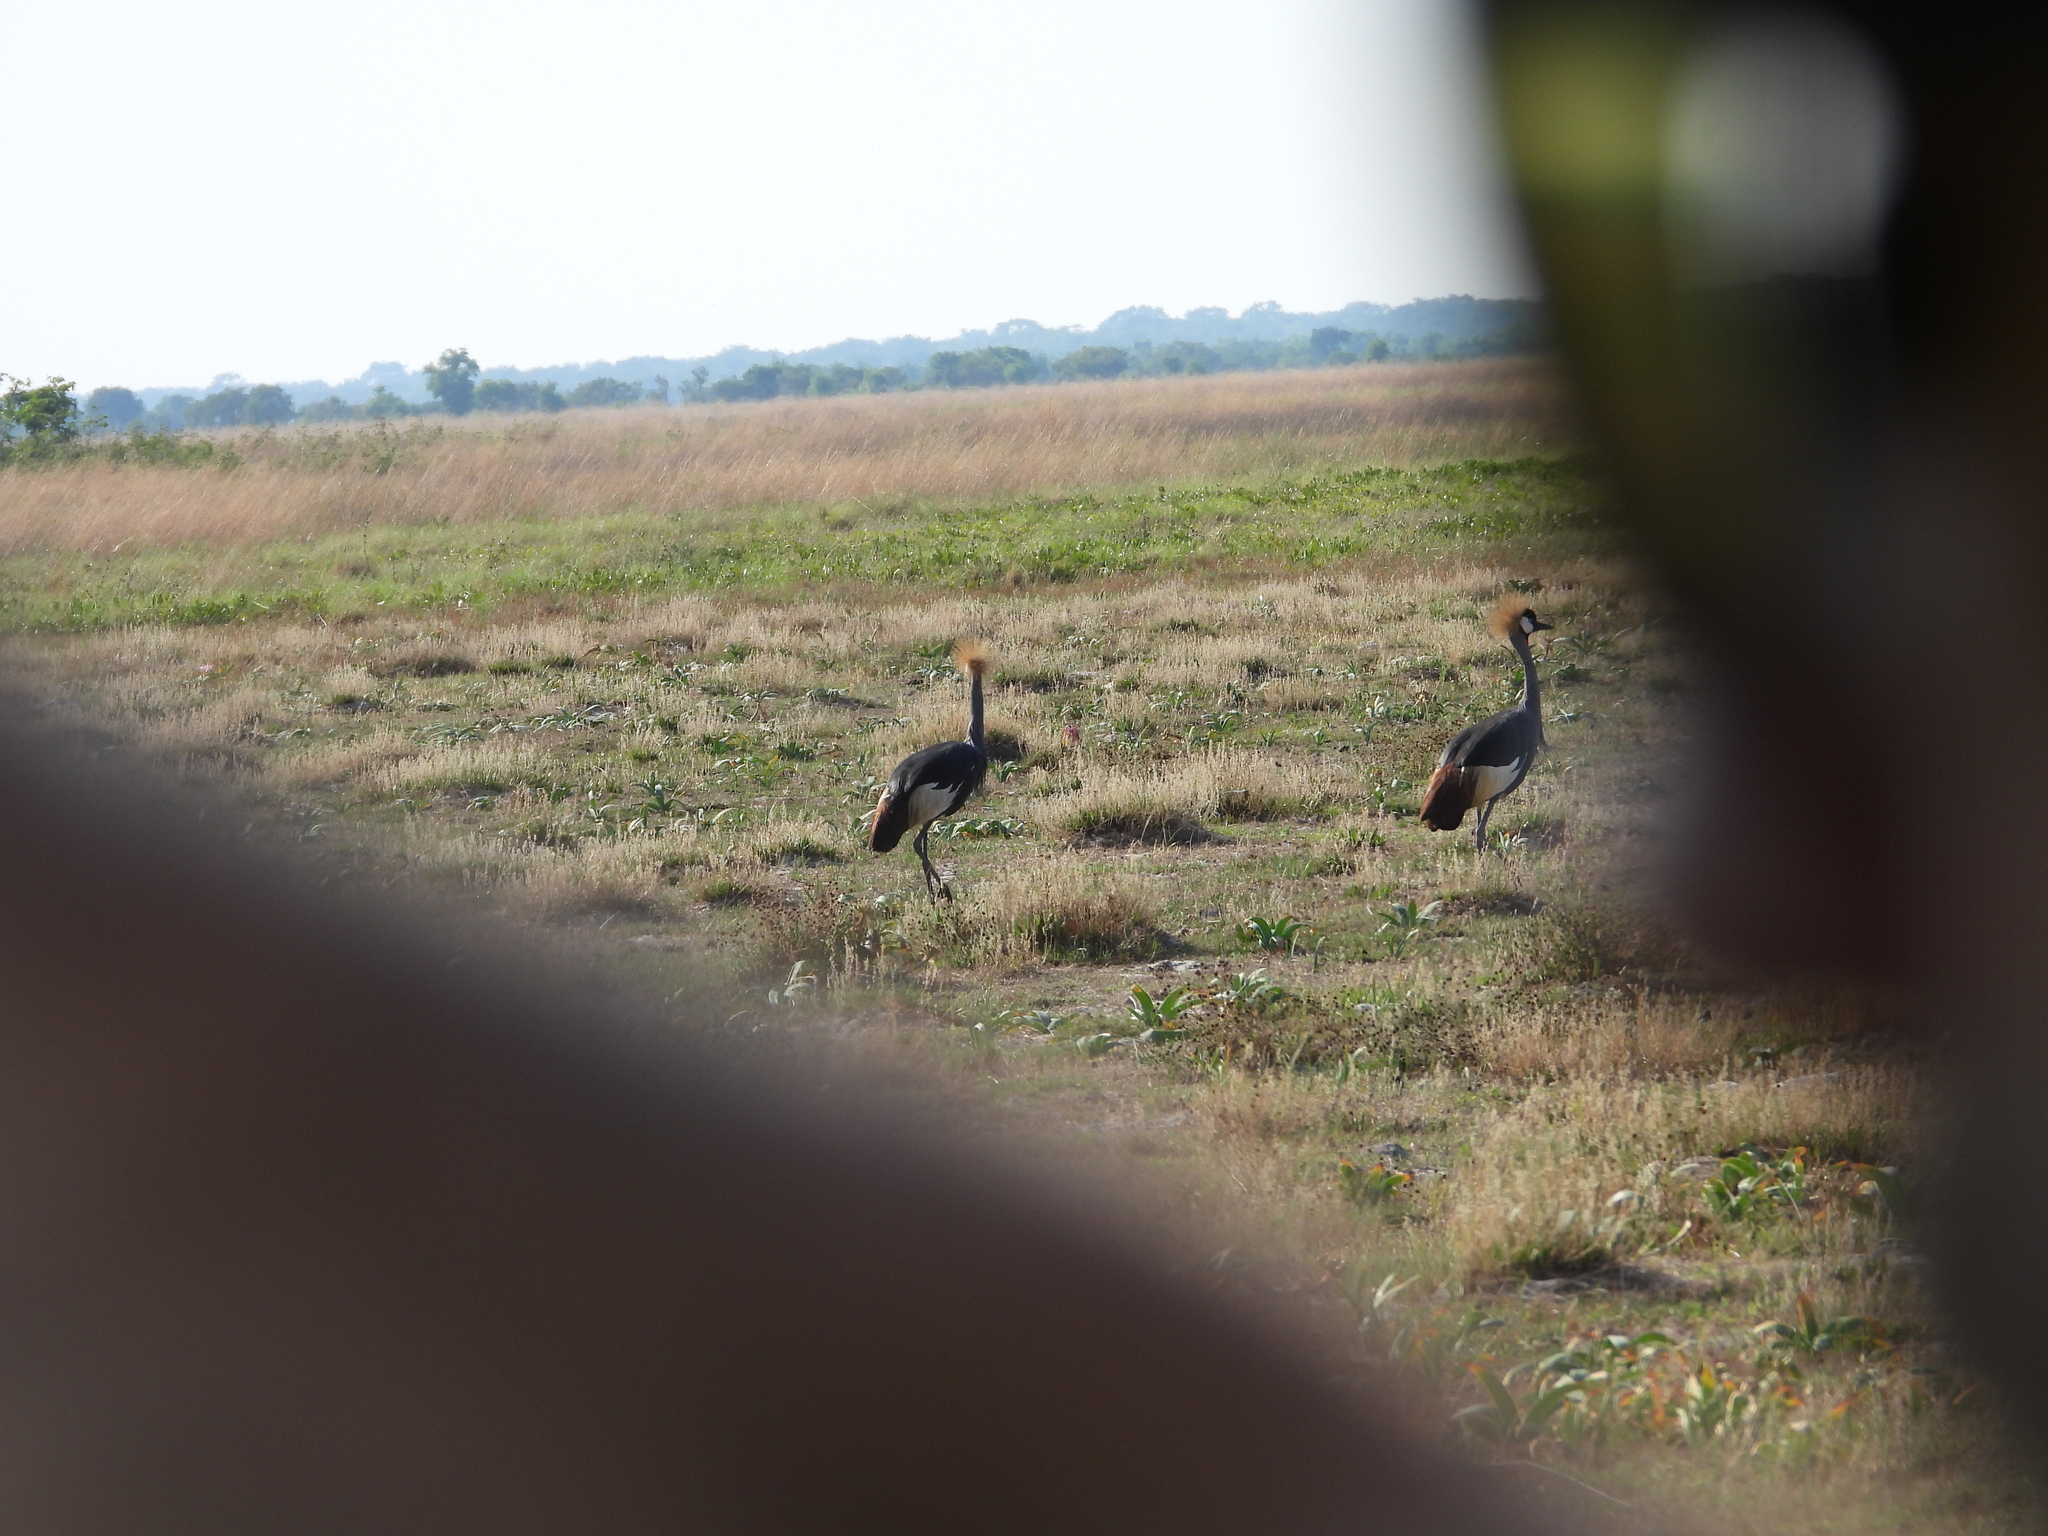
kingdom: Animalia
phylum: Chordata
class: Aves
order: Gruiformes
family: Gruidae
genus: Balearica
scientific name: Balearica regulorum
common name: Grey crowned crane
